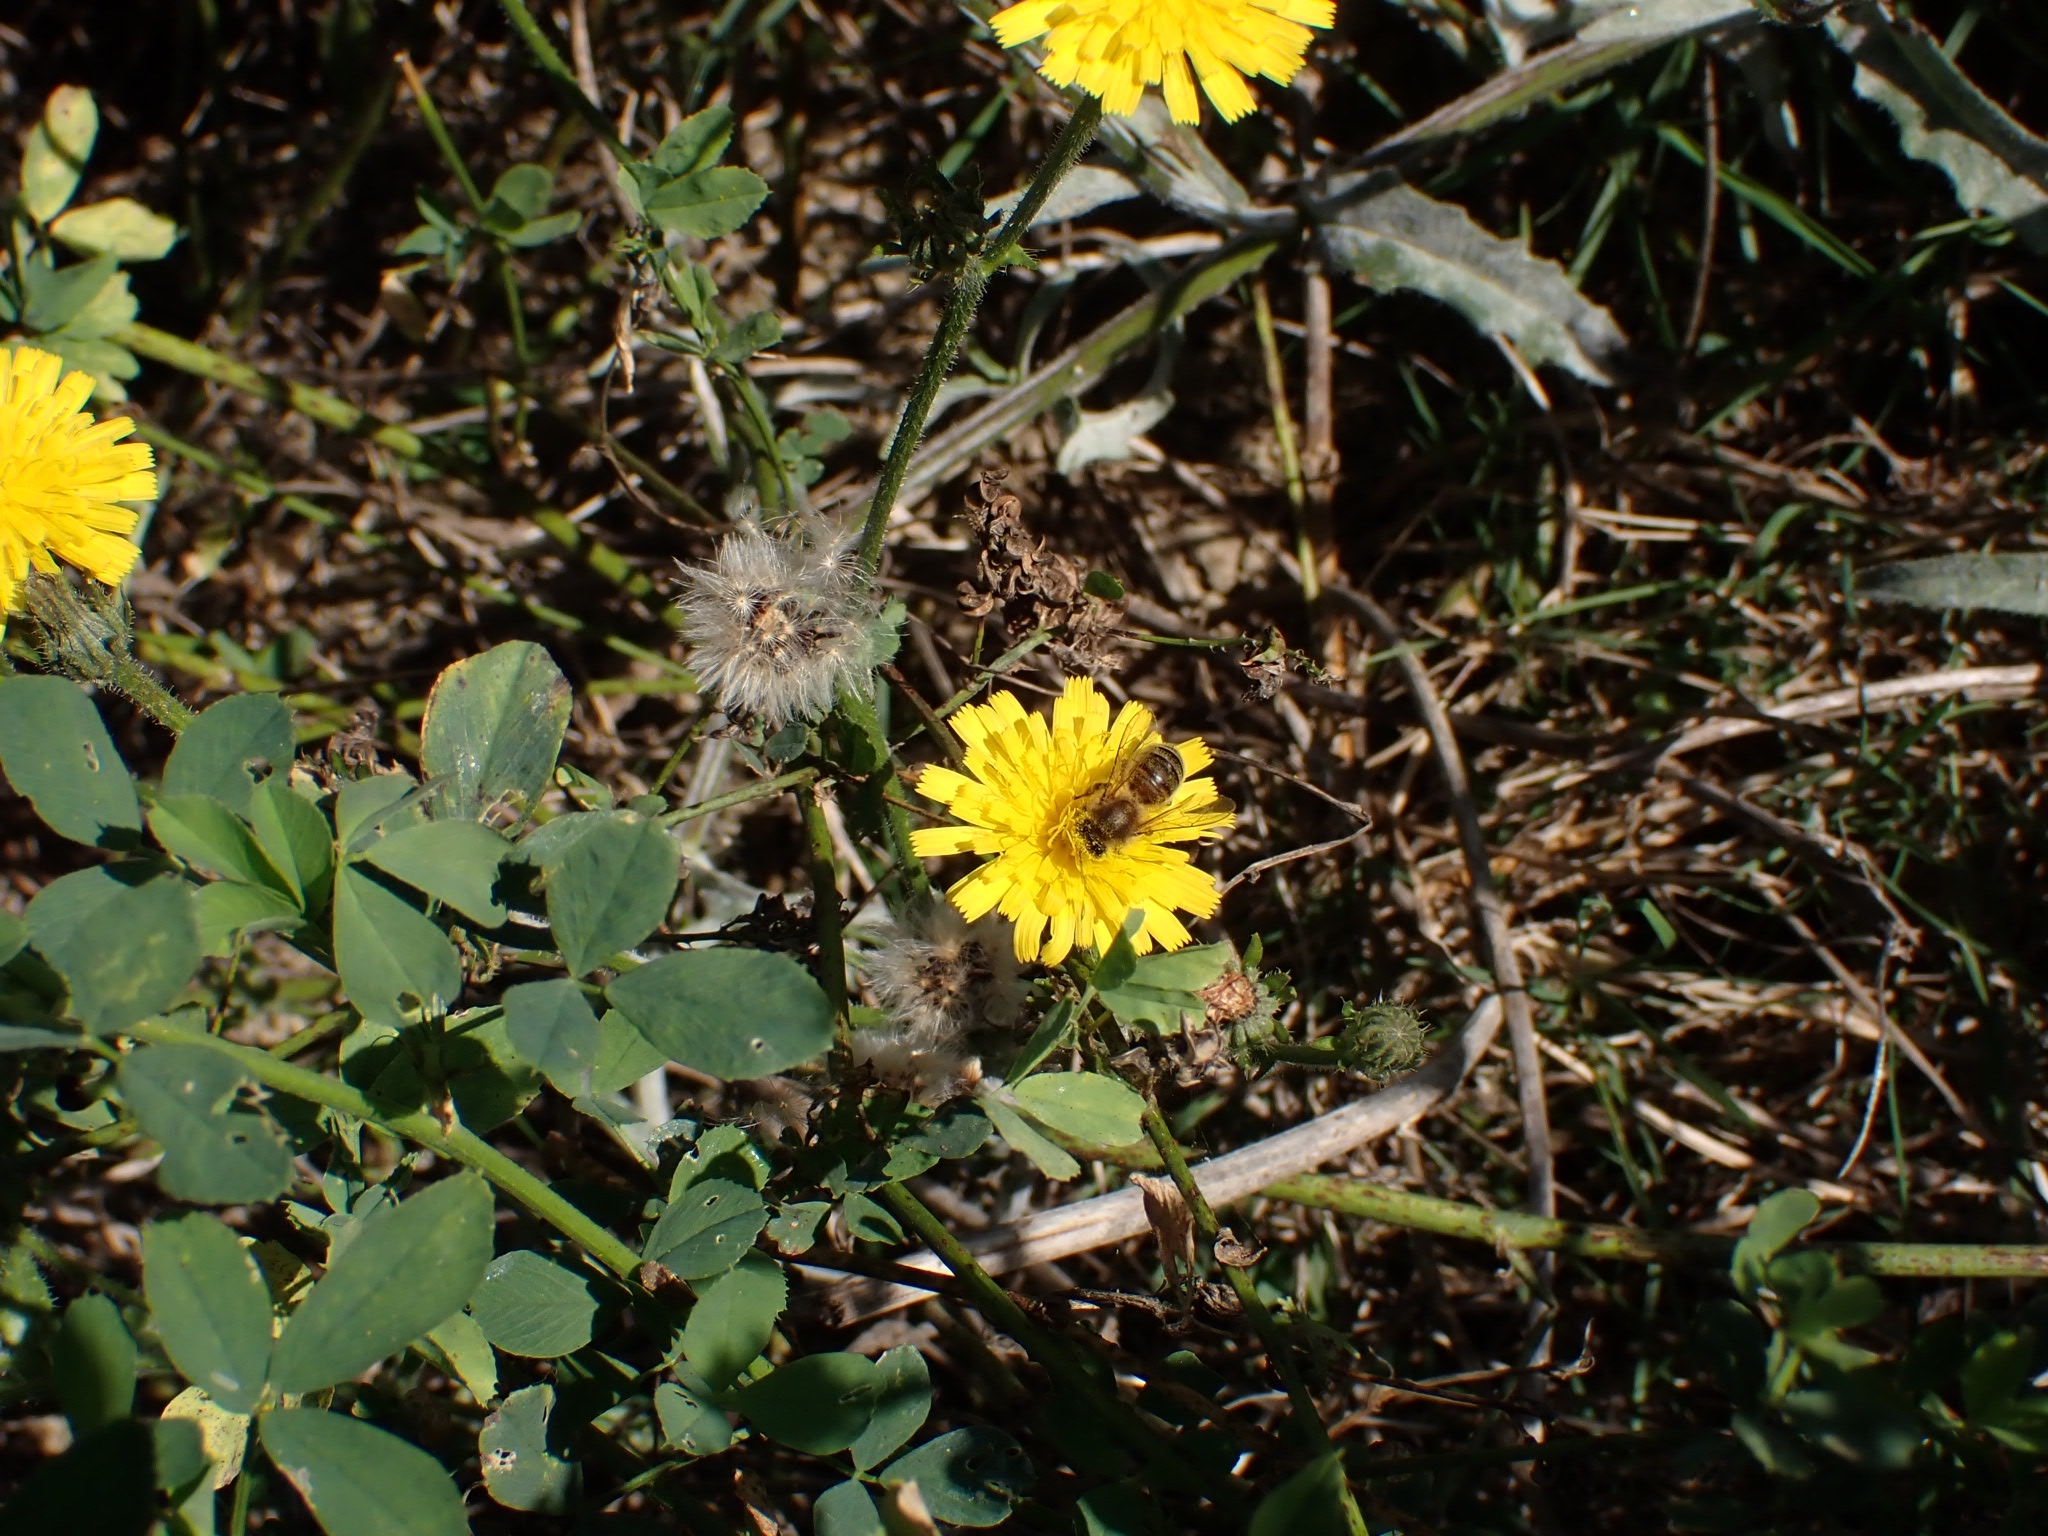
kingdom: Animalia
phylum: Arthropoda
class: Insecta
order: Hymenoptera
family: Apidae
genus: Apis
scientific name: Apis mellifera
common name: Honey bee
